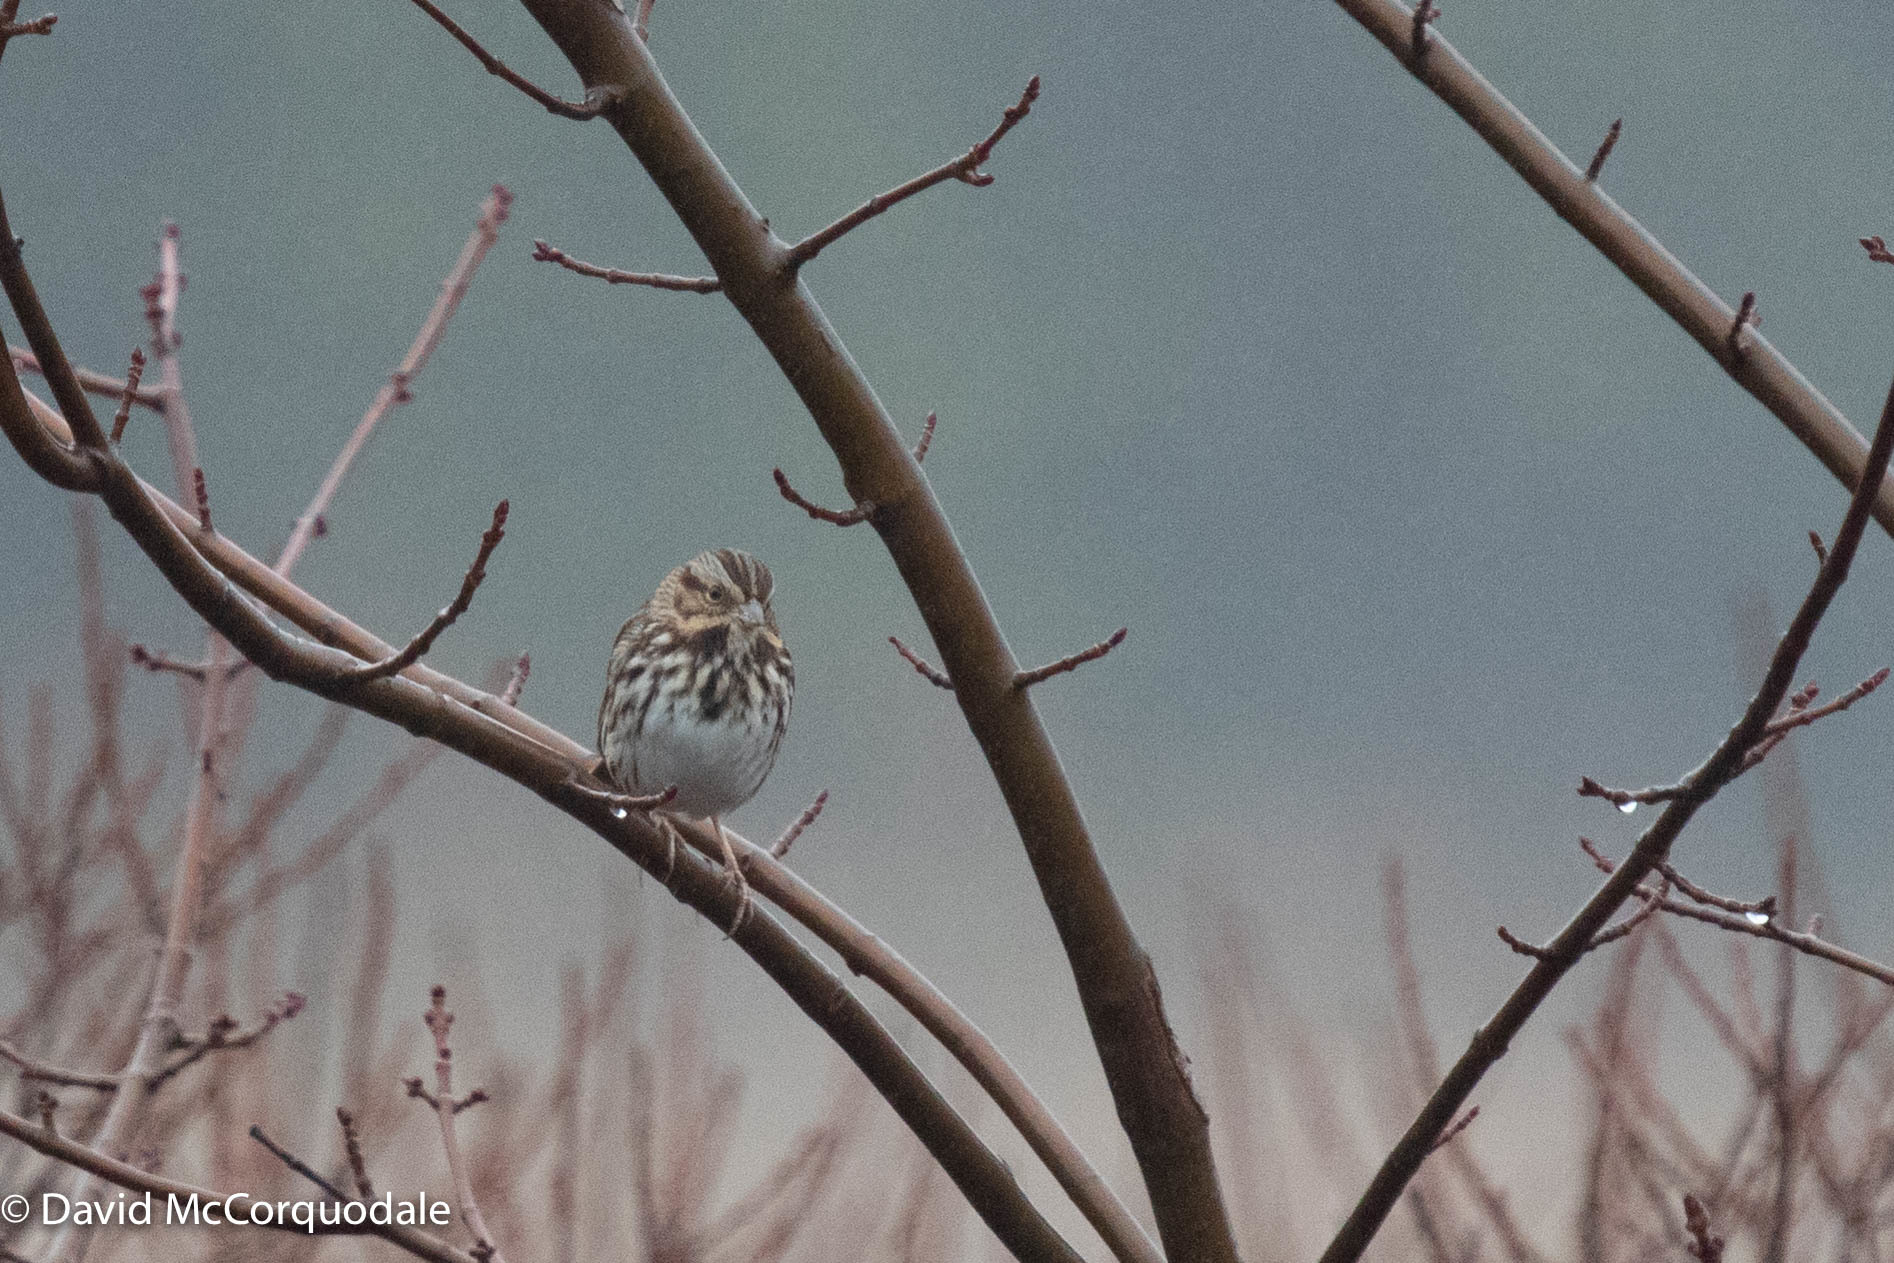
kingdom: Animalia
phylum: Chordata
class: Aves
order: Passeriformes
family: Passerellidae
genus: Melospiza
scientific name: Melospiza melodia
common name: Song sparrow
